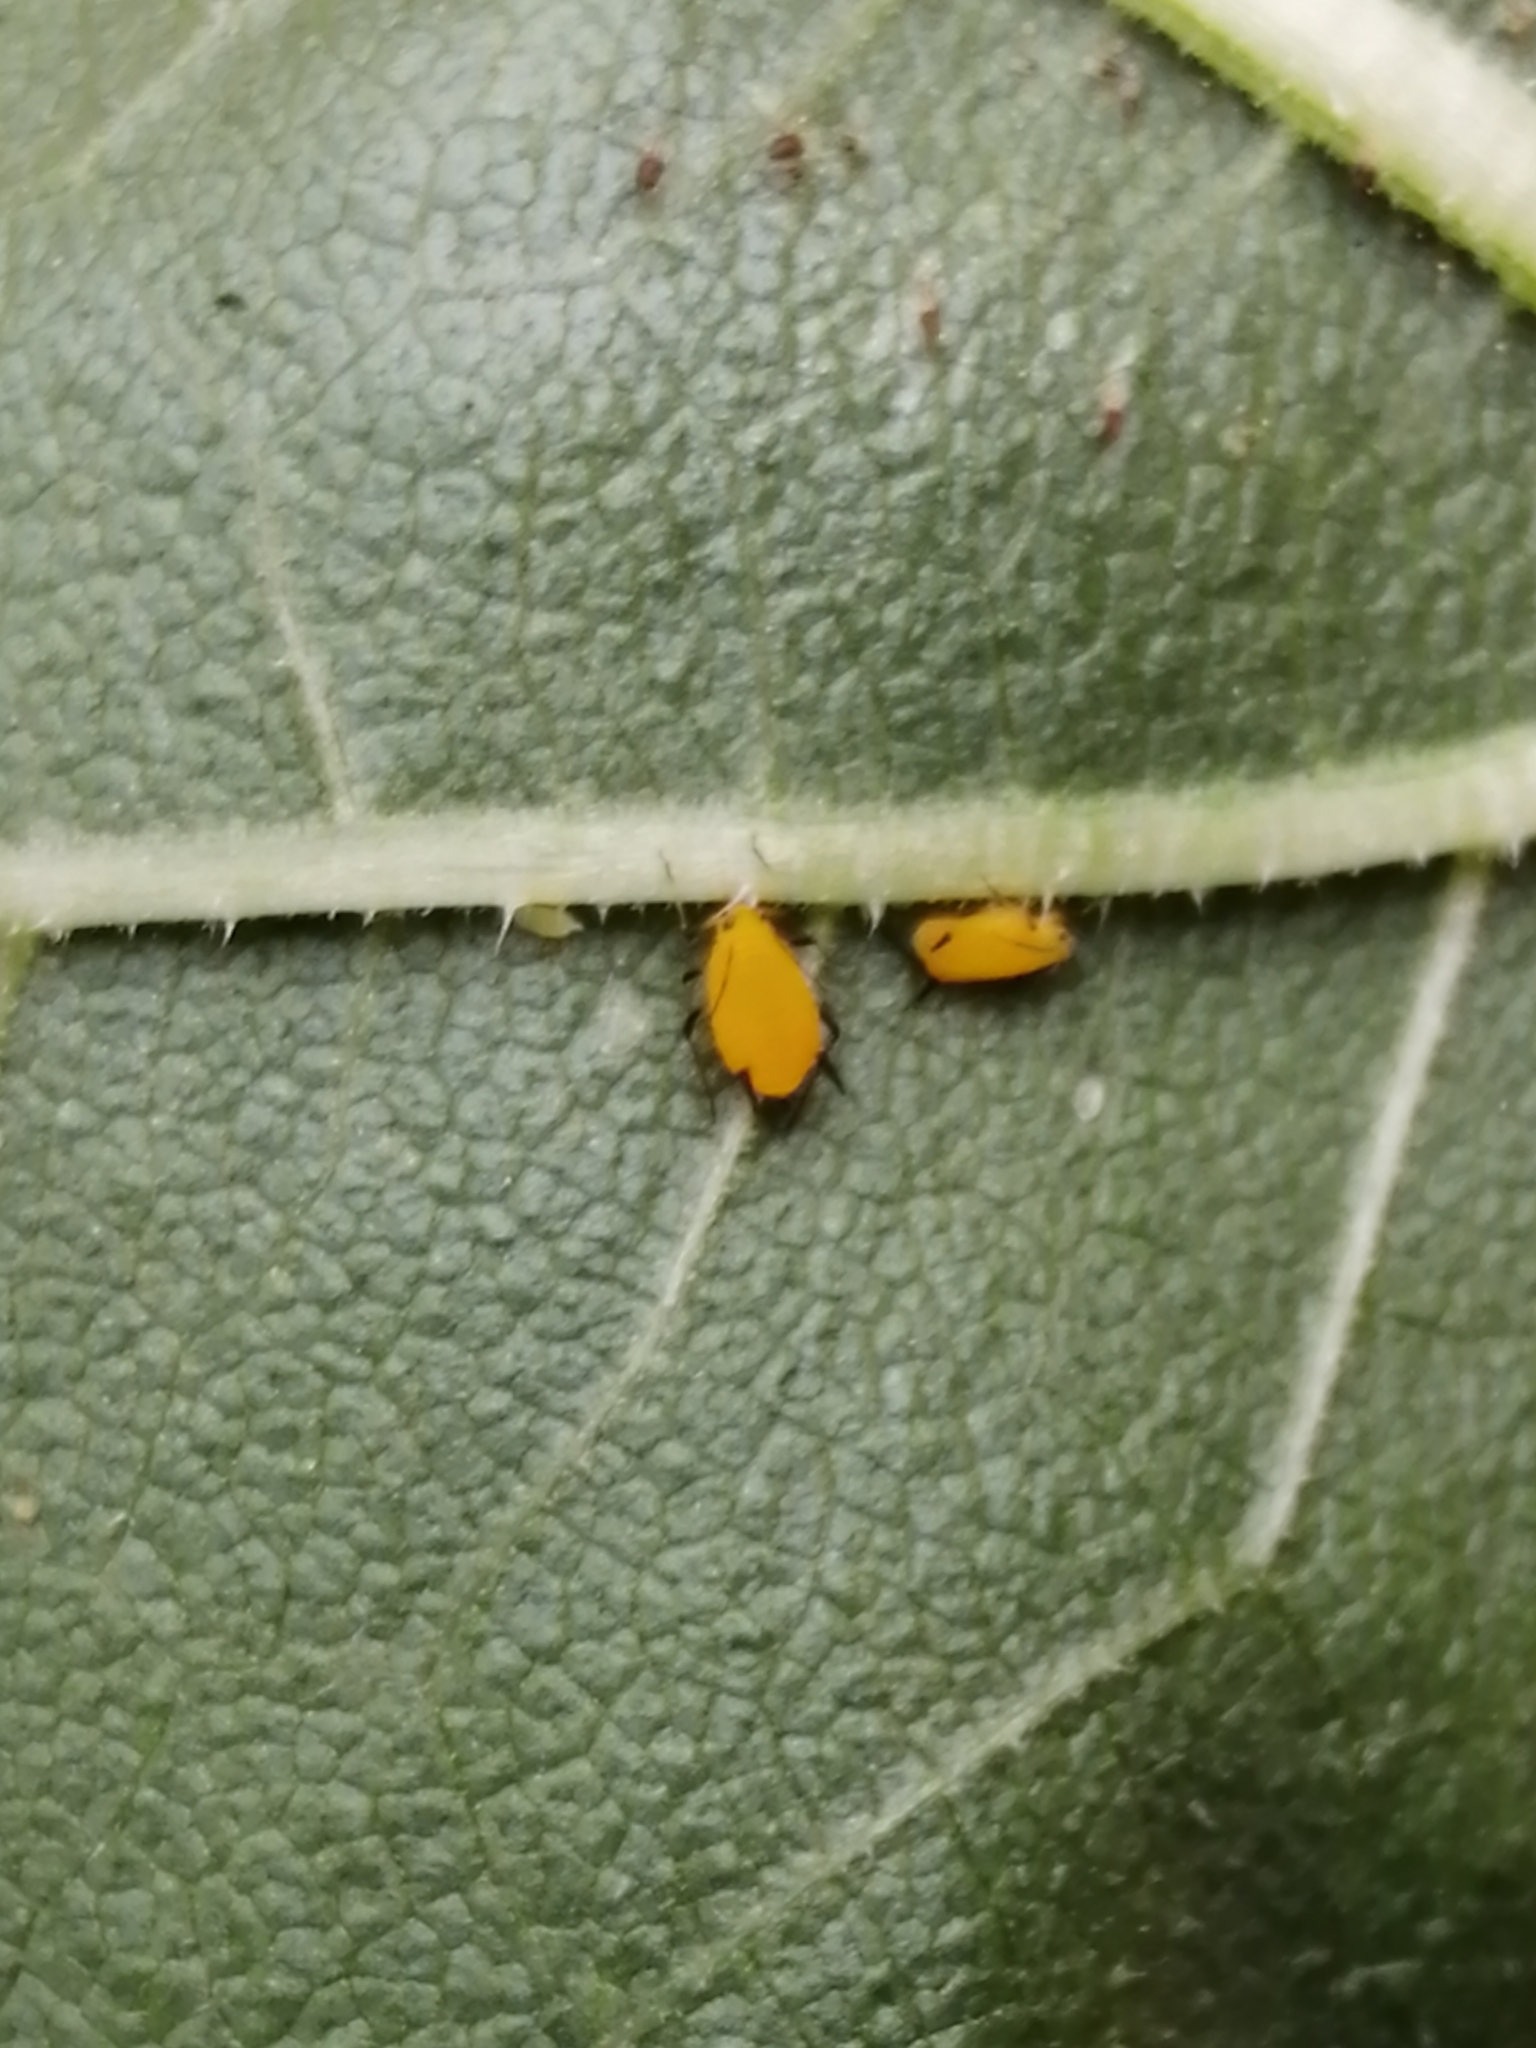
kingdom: Animalia
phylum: Arthropoda
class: Insecta
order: Hemiptera
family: Aphididae
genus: Aphis
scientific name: Aphis nerii
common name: Oleander aphid
